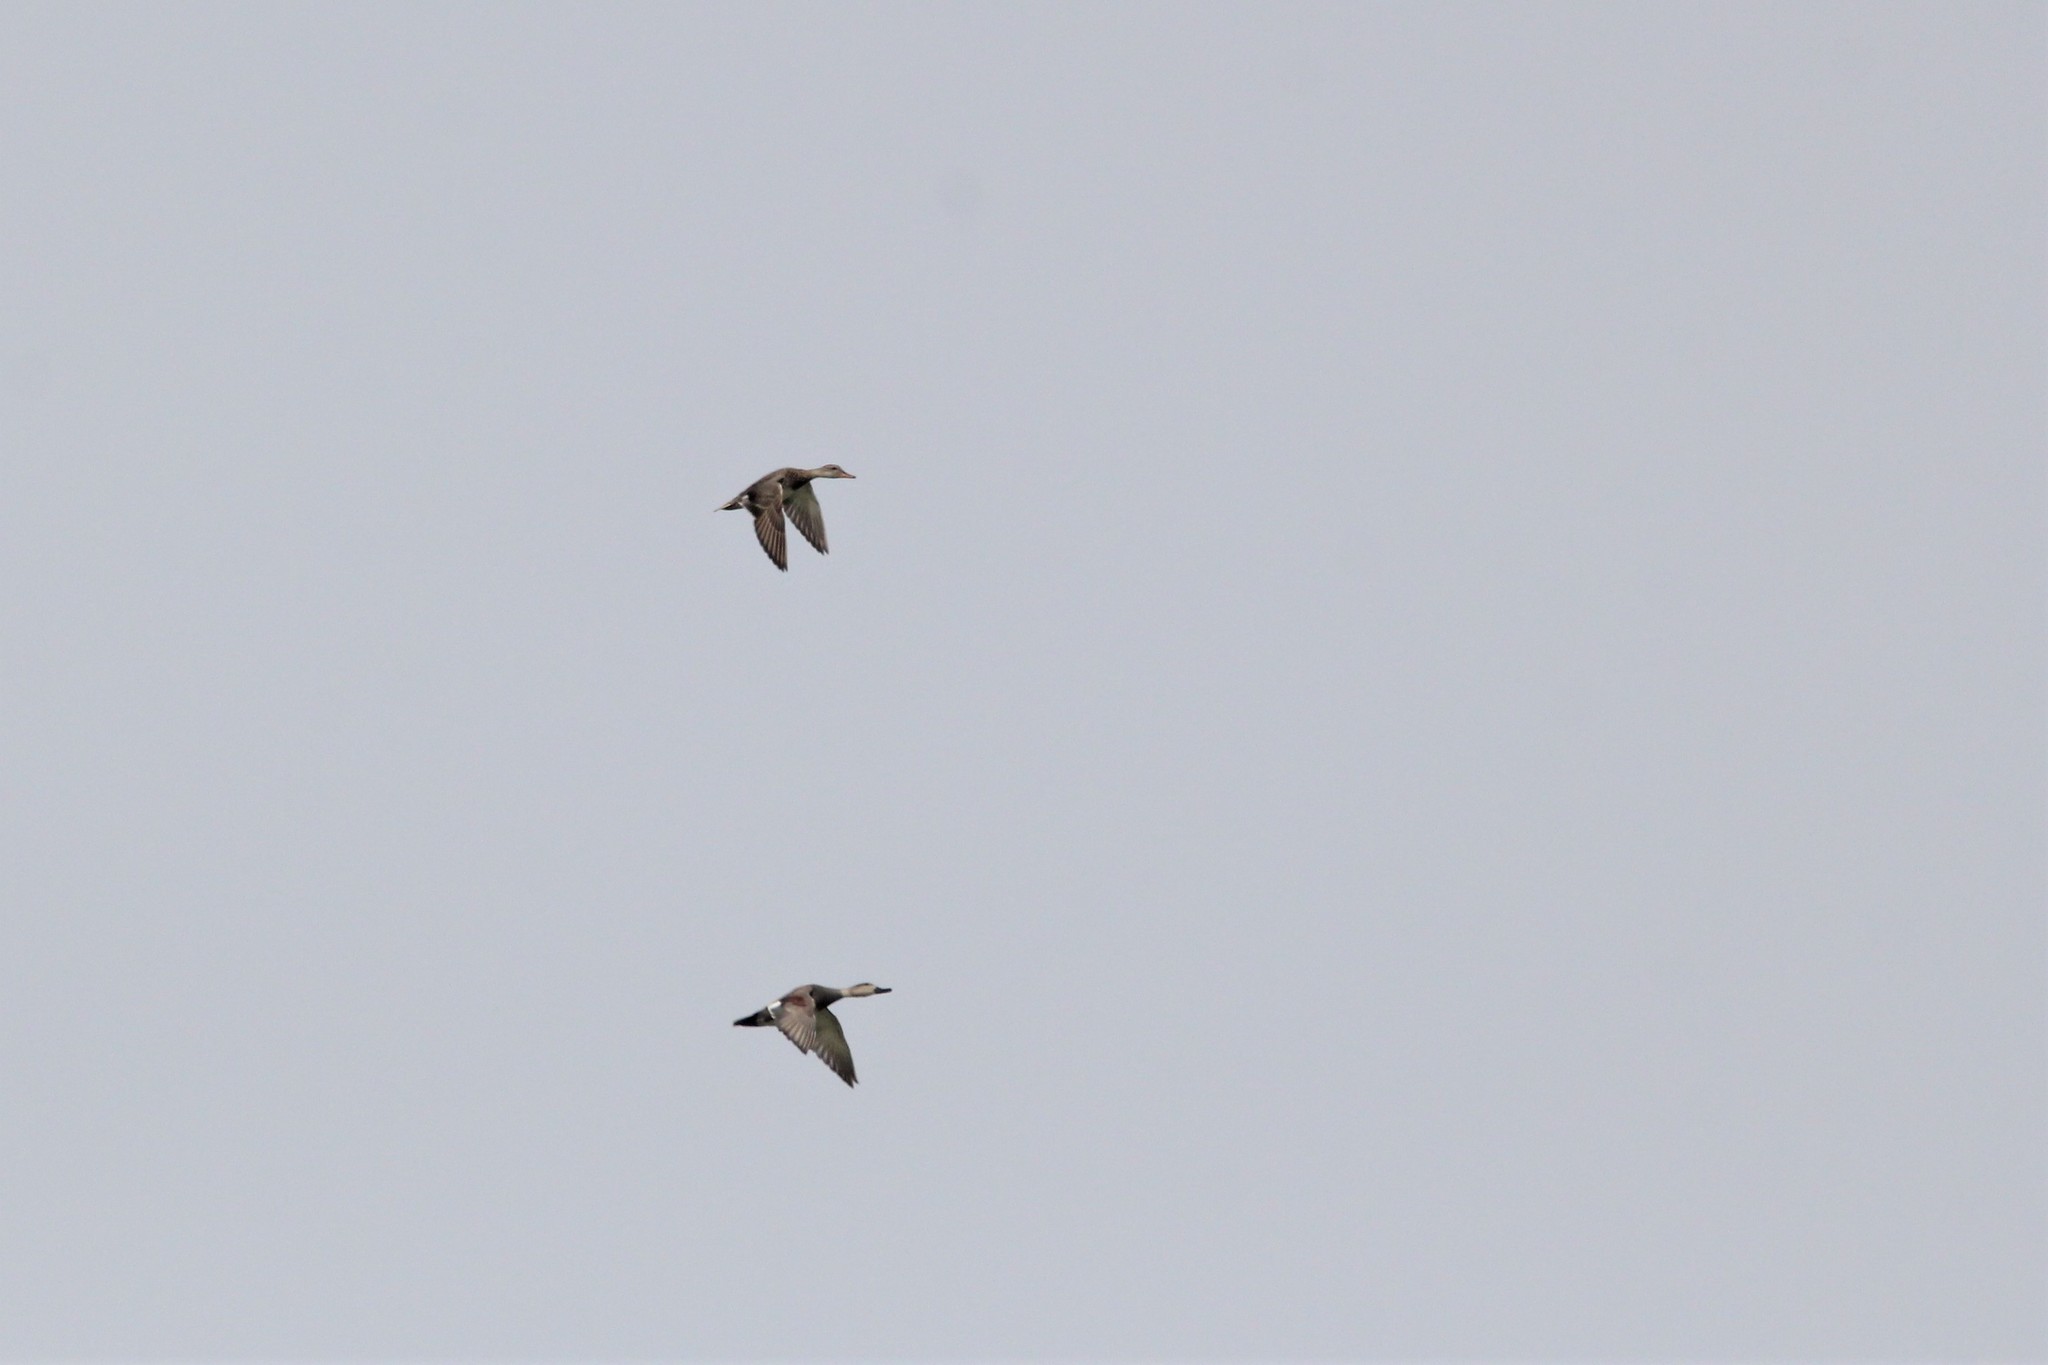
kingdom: Animalia
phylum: Chordata
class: Aves
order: Anseriformes
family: Anatidae
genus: Mareca
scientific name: Mareca strepera
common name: Gadwall
